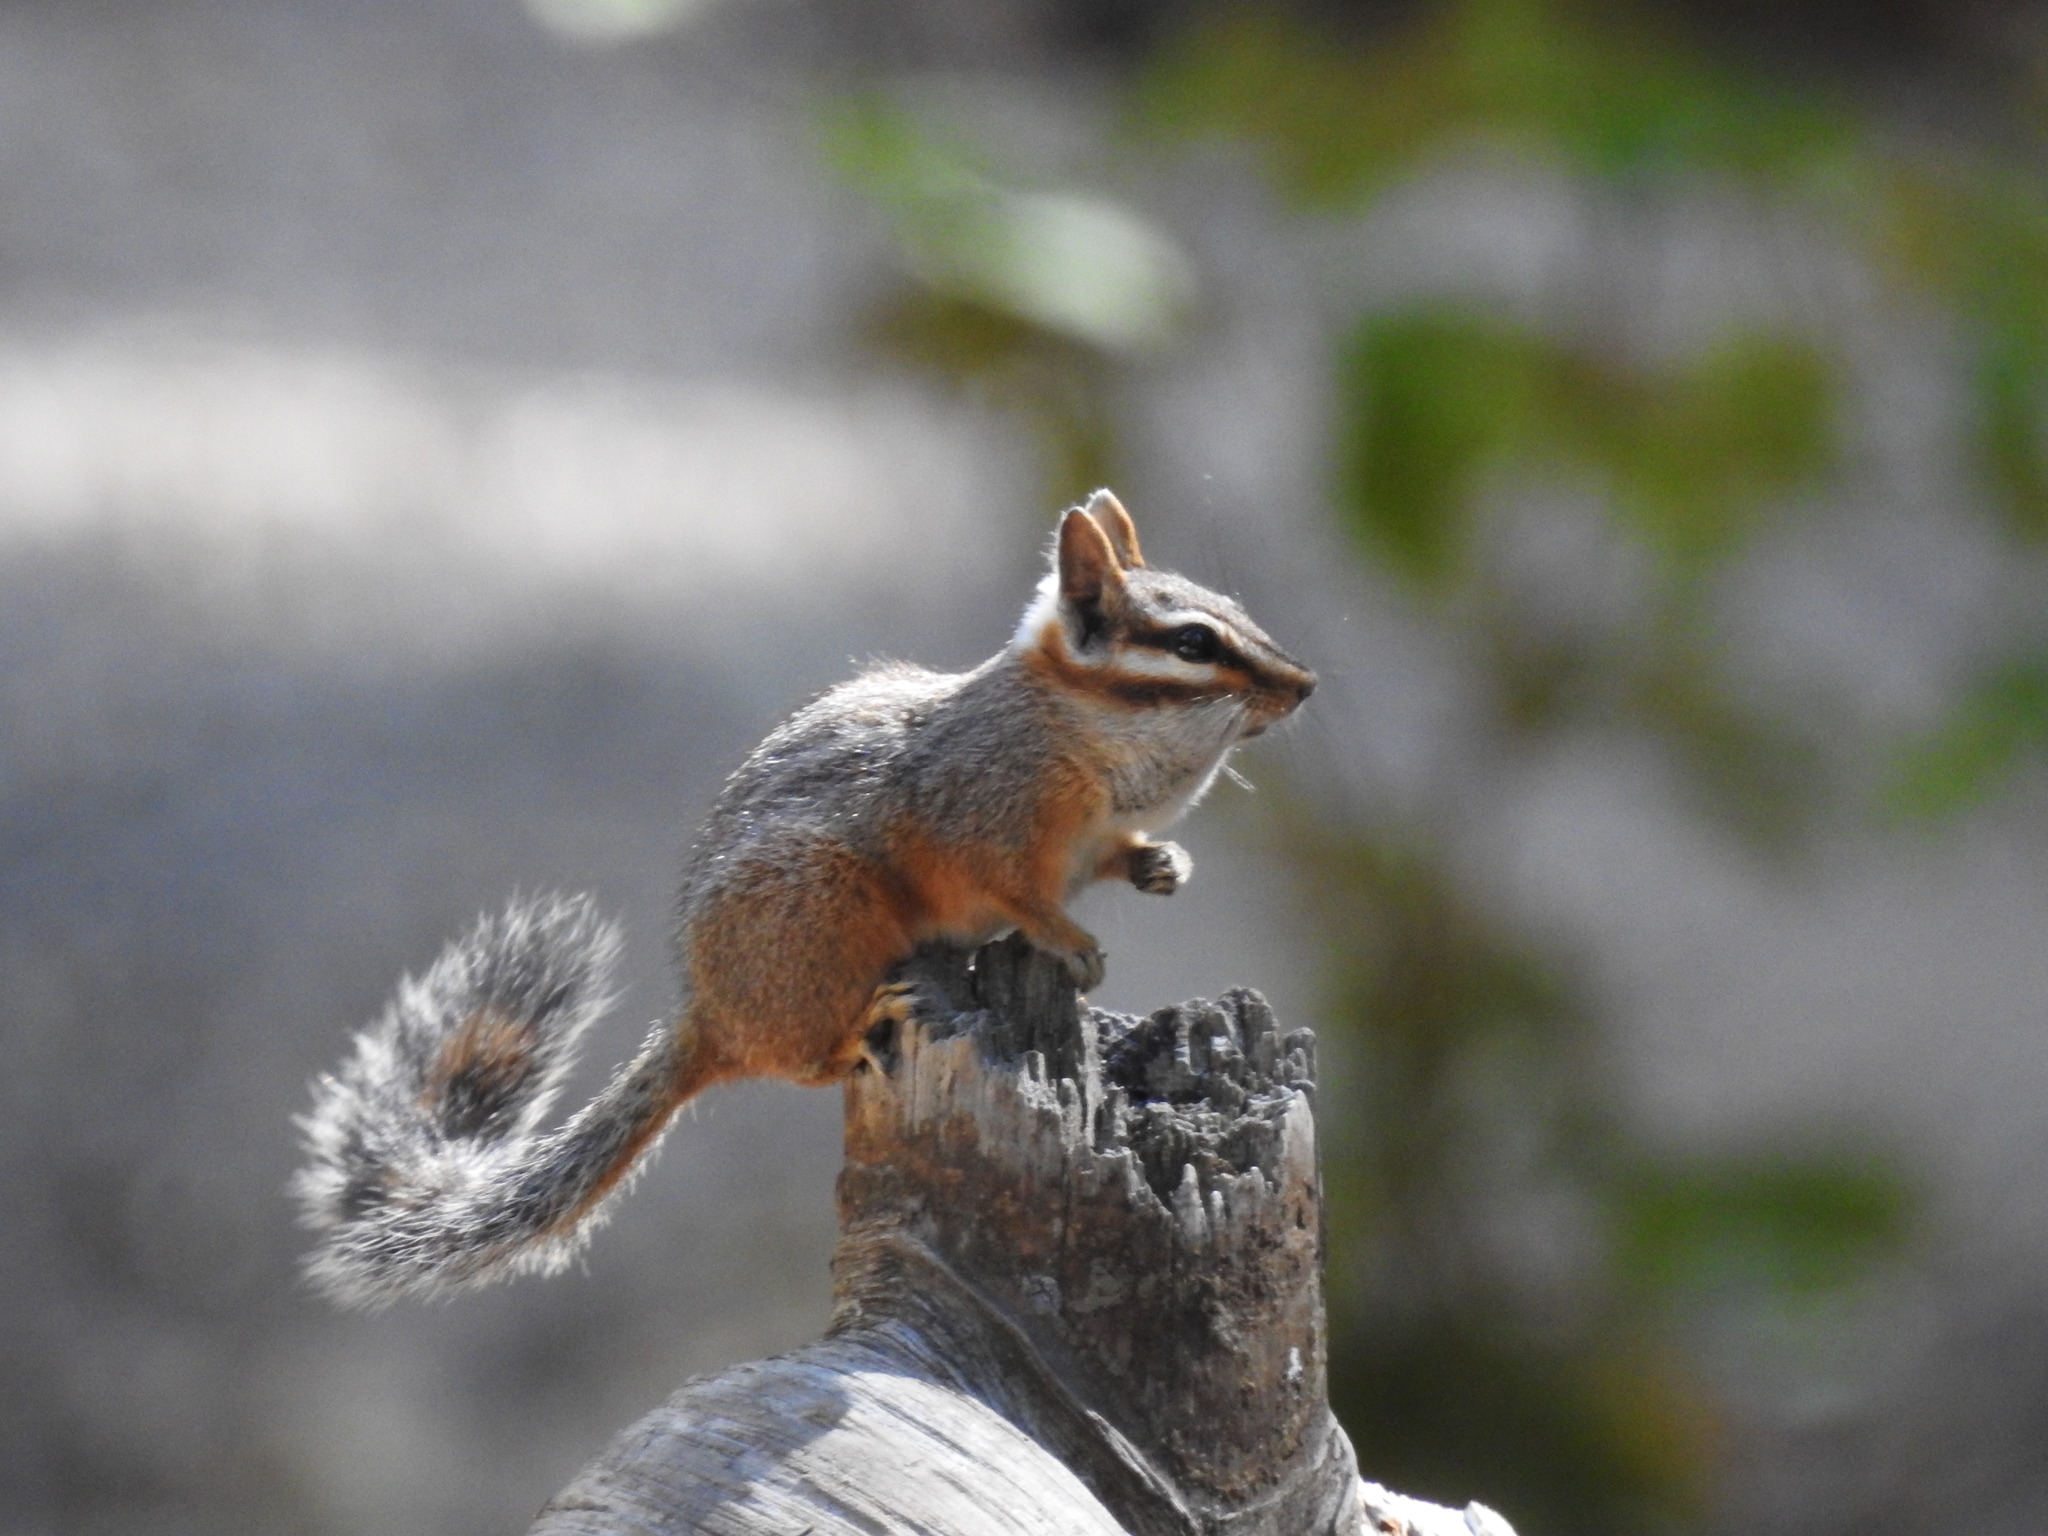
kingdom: Animalia
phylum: Chordata
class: Mammalia
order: Rodentia
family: Sciuridae
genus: Tamias
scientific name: Tamias dorsalis
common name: Cliff chipmunk
